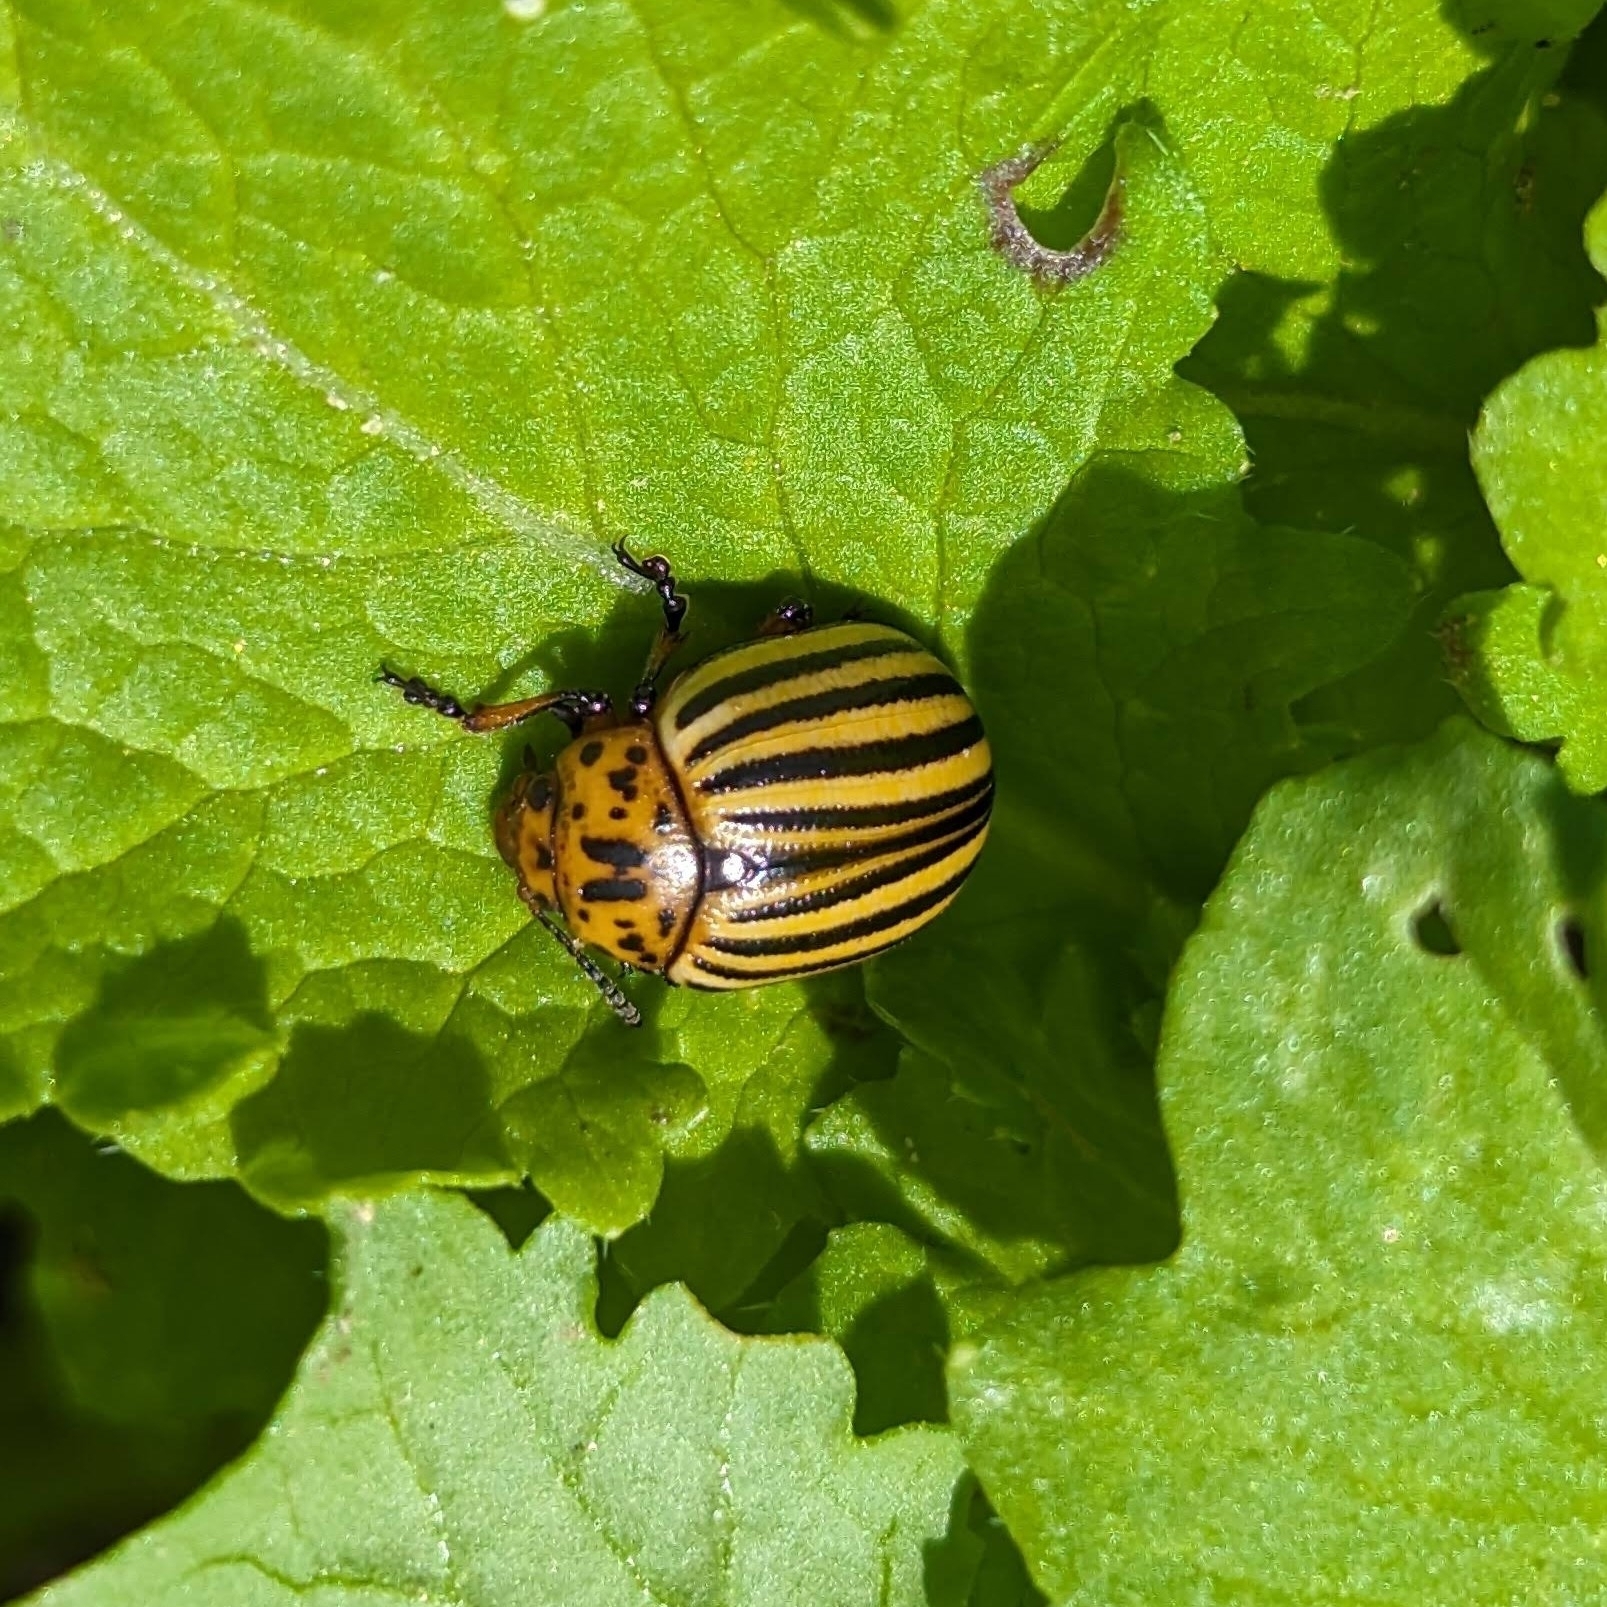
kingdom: Animalia
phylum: Arthropoda
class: Insecta
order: Coleoptera
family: Chrysomelidae
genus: Leptinotarsa
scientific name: Leptinotarsa decemlineata
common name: Colorado potato beetle
